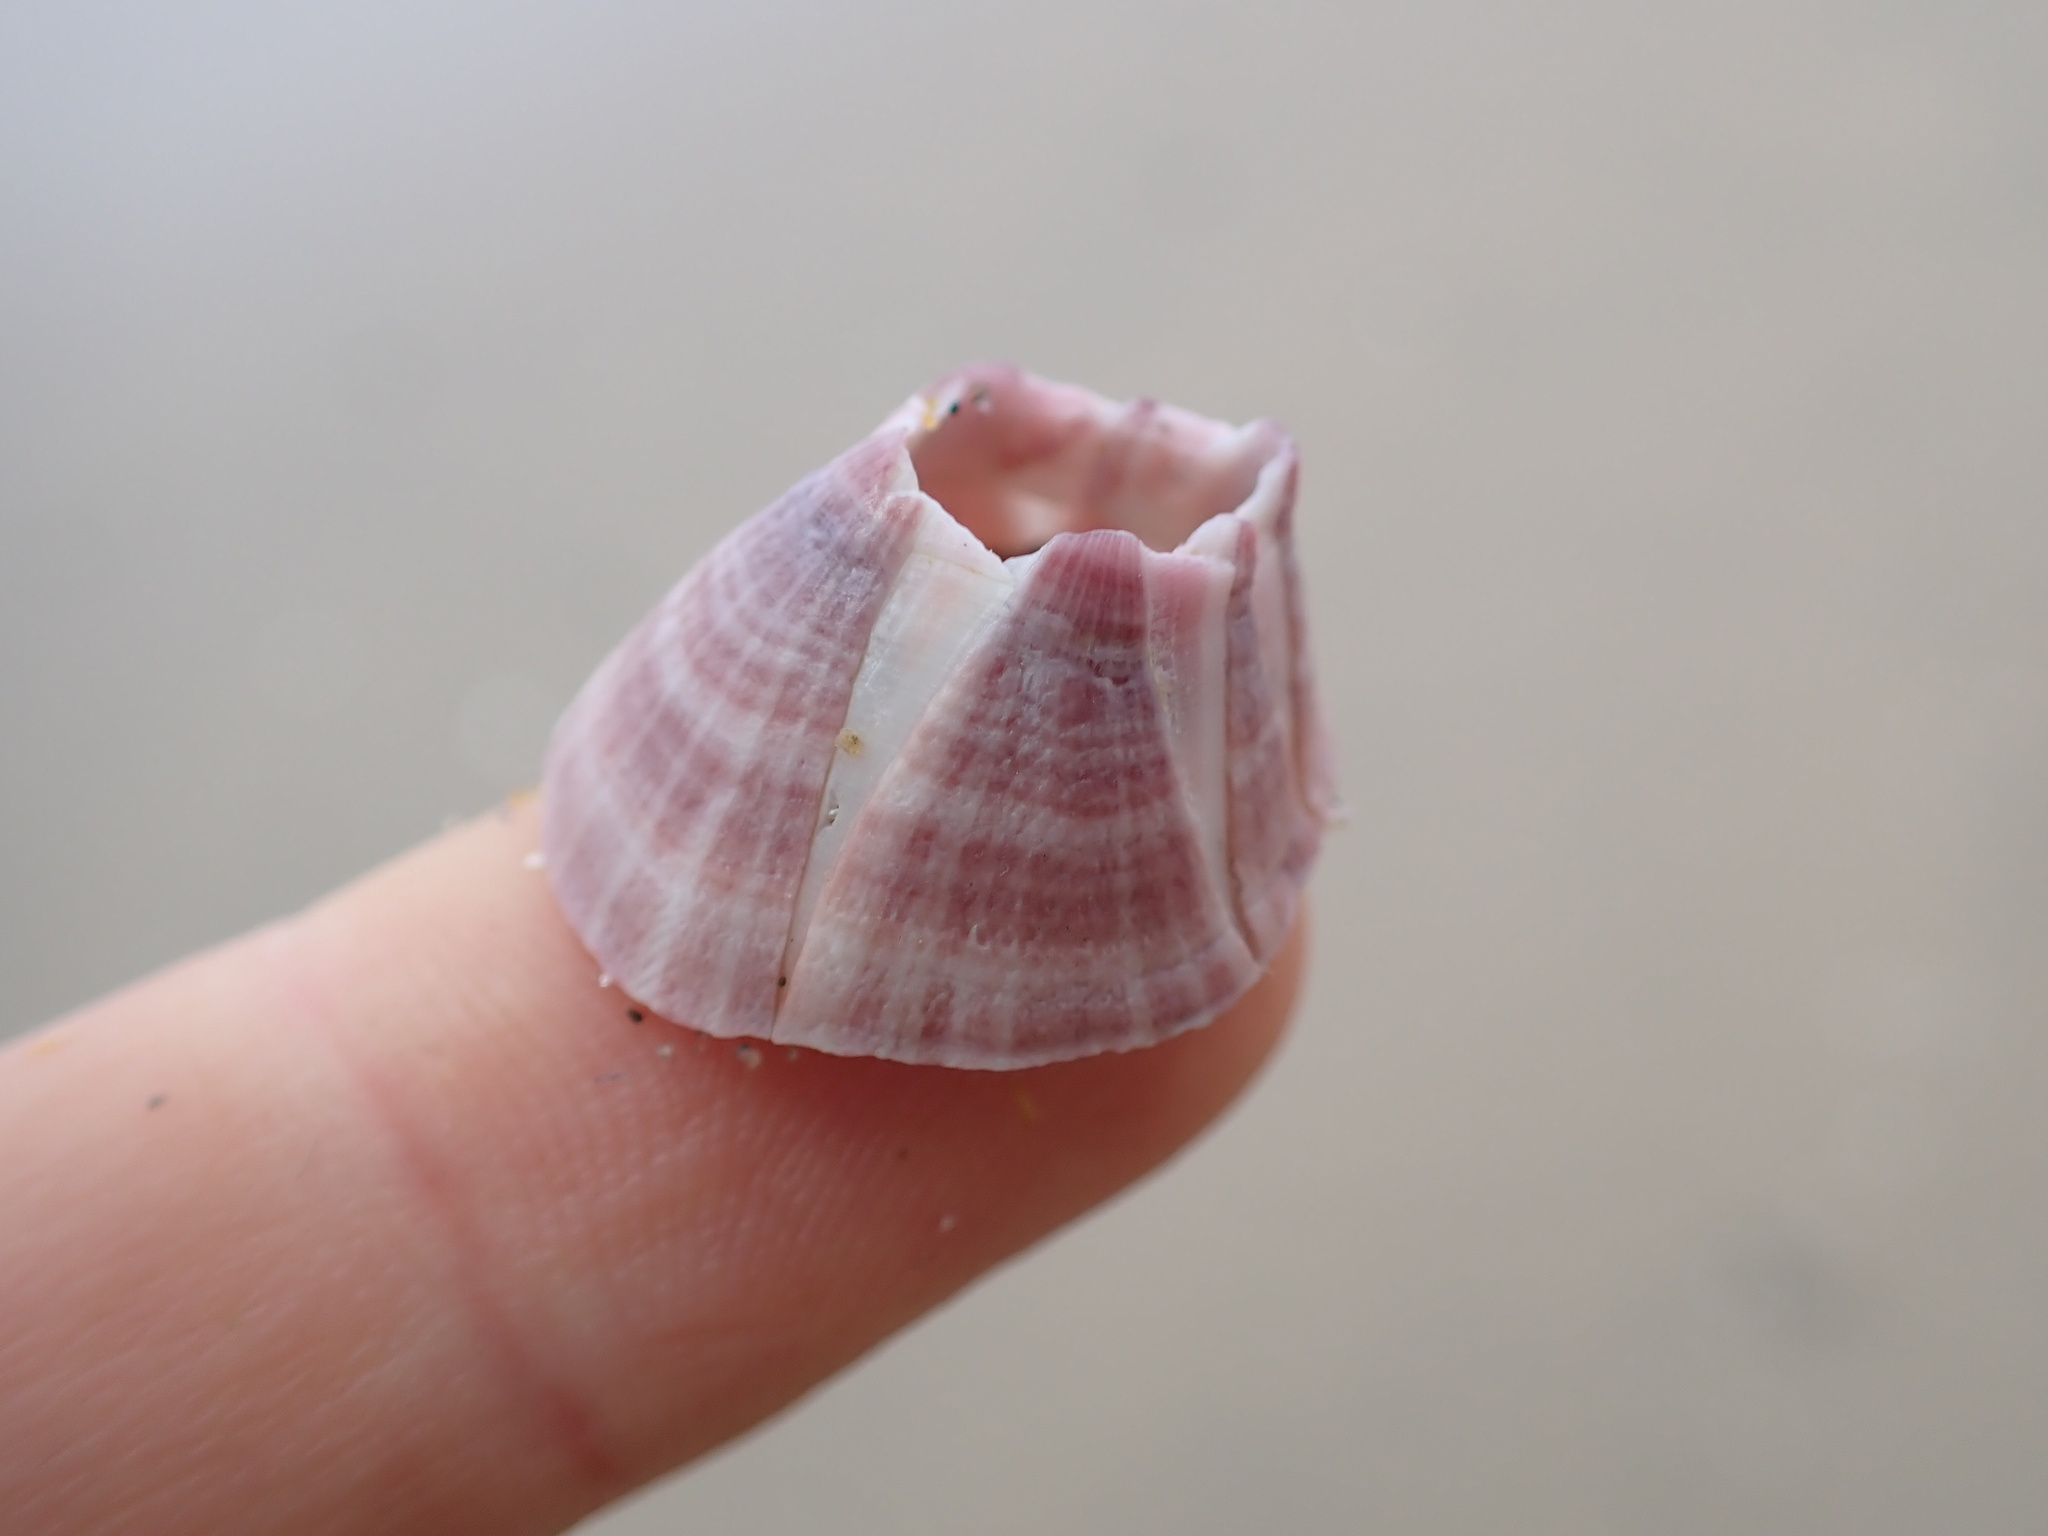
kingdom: Animalia
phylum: Arthropoda
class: Maxillopoda
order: Sessilia
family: Balanidae
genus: Paraconcavus
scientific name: Paraconcavus pacificus
